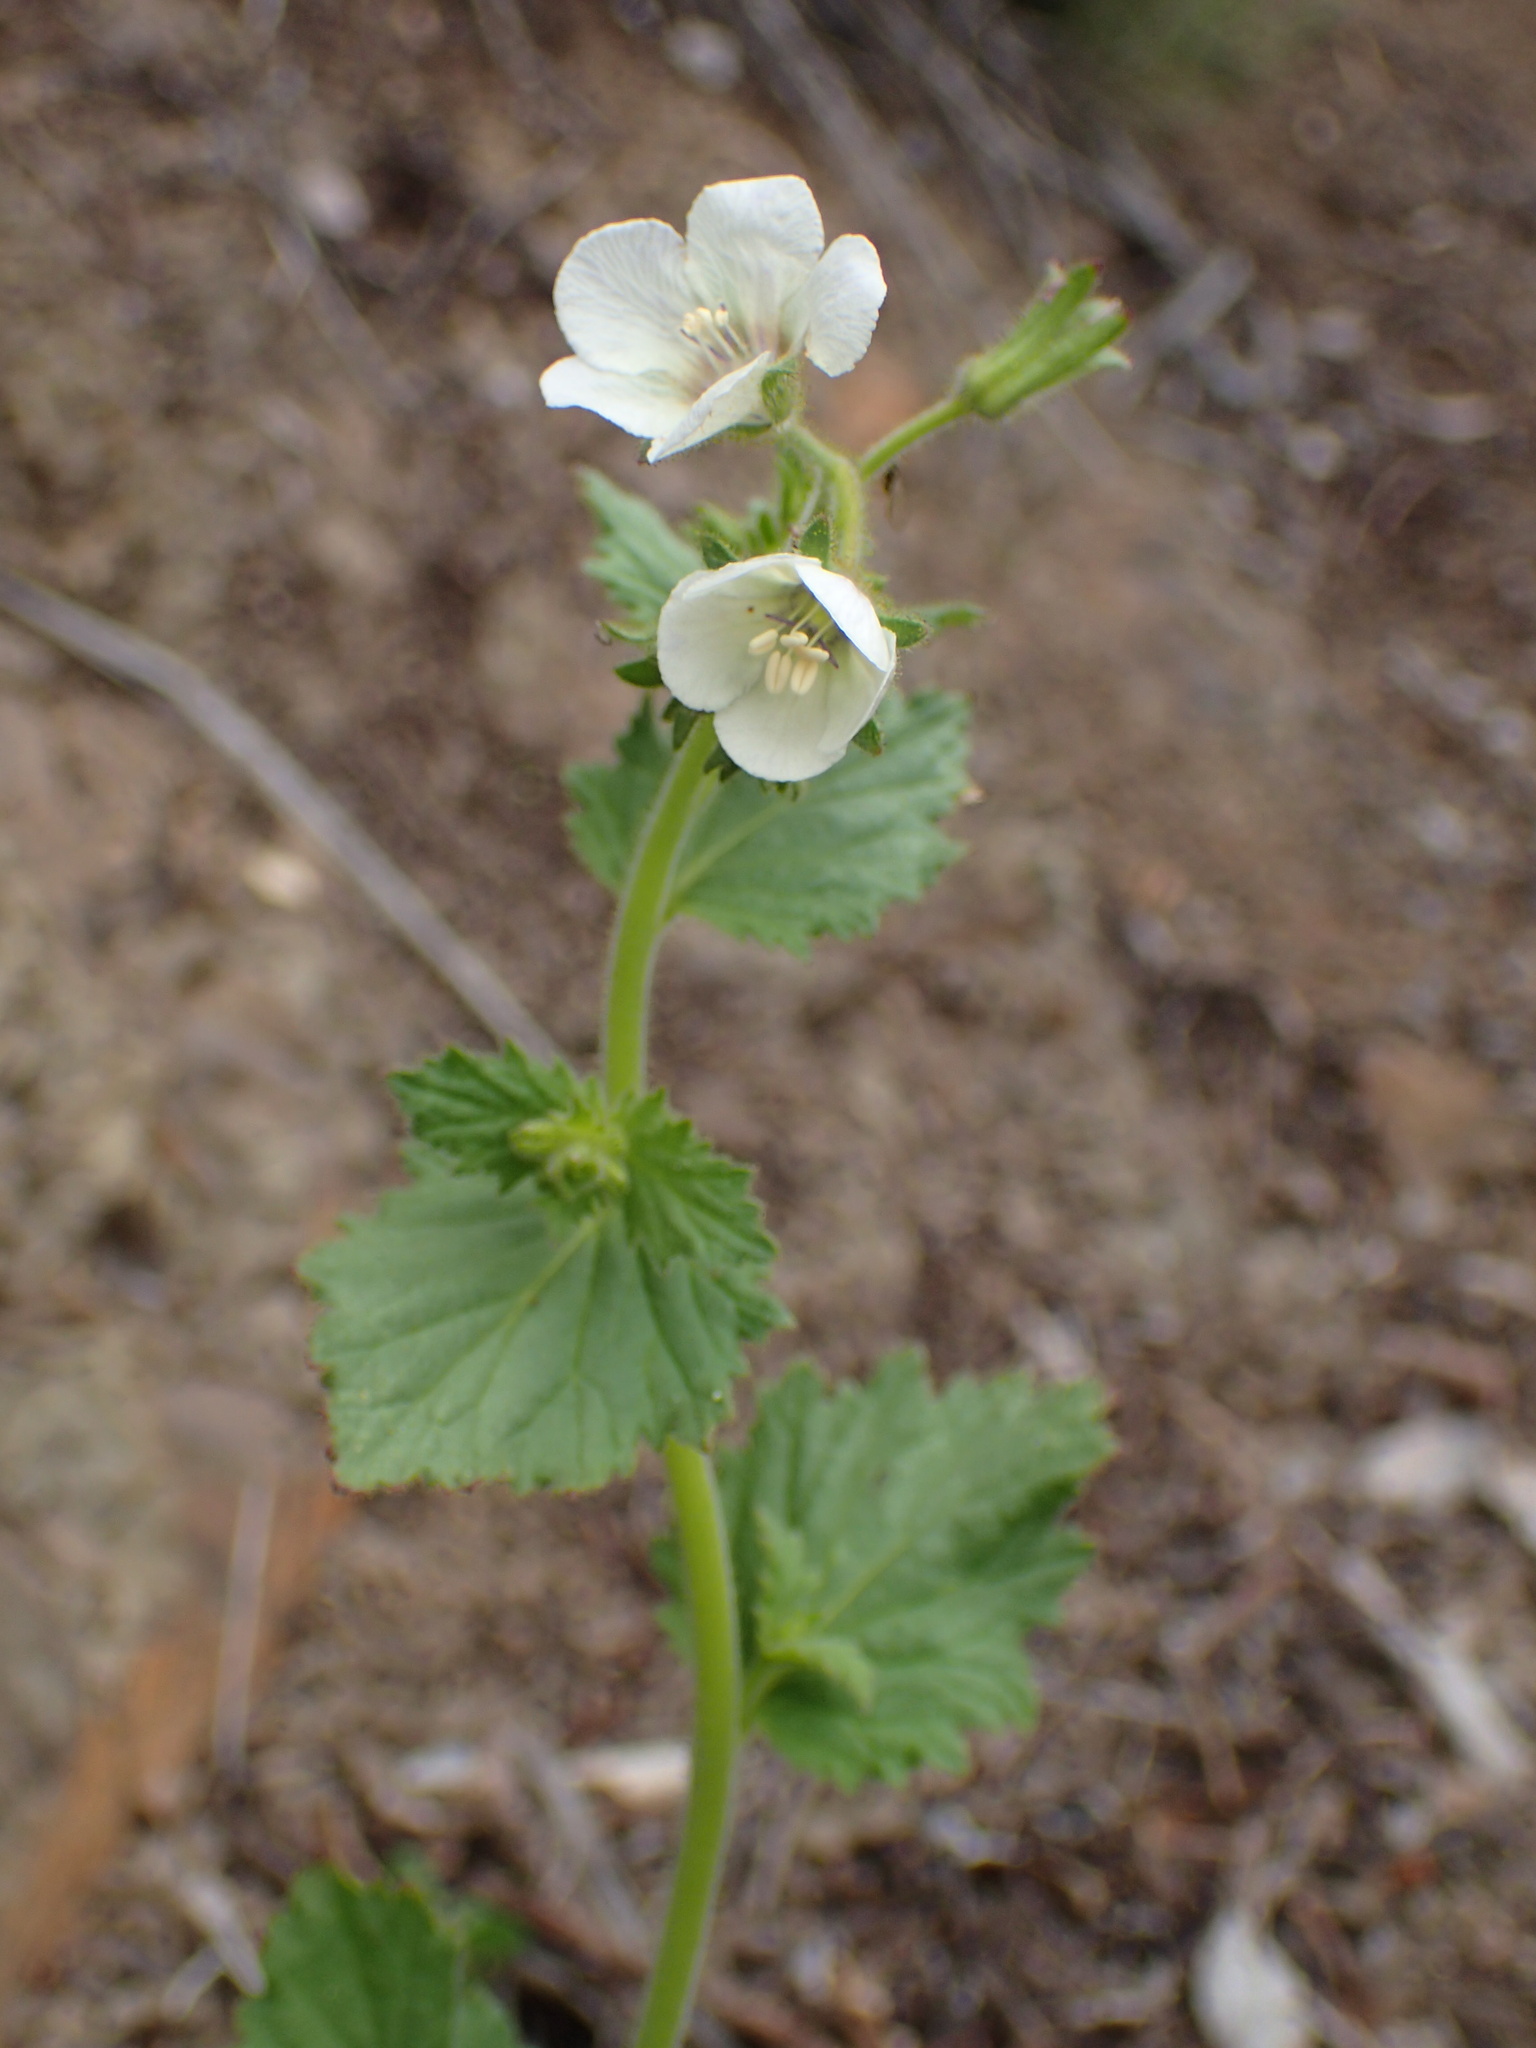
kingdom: Plantae
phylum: Tracheophyta
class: Magnoliopsida
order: Boraginales
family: Hydrophyllaceae
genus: Phacelia
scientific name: Phacelia viscida
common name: Sticky phacelia
